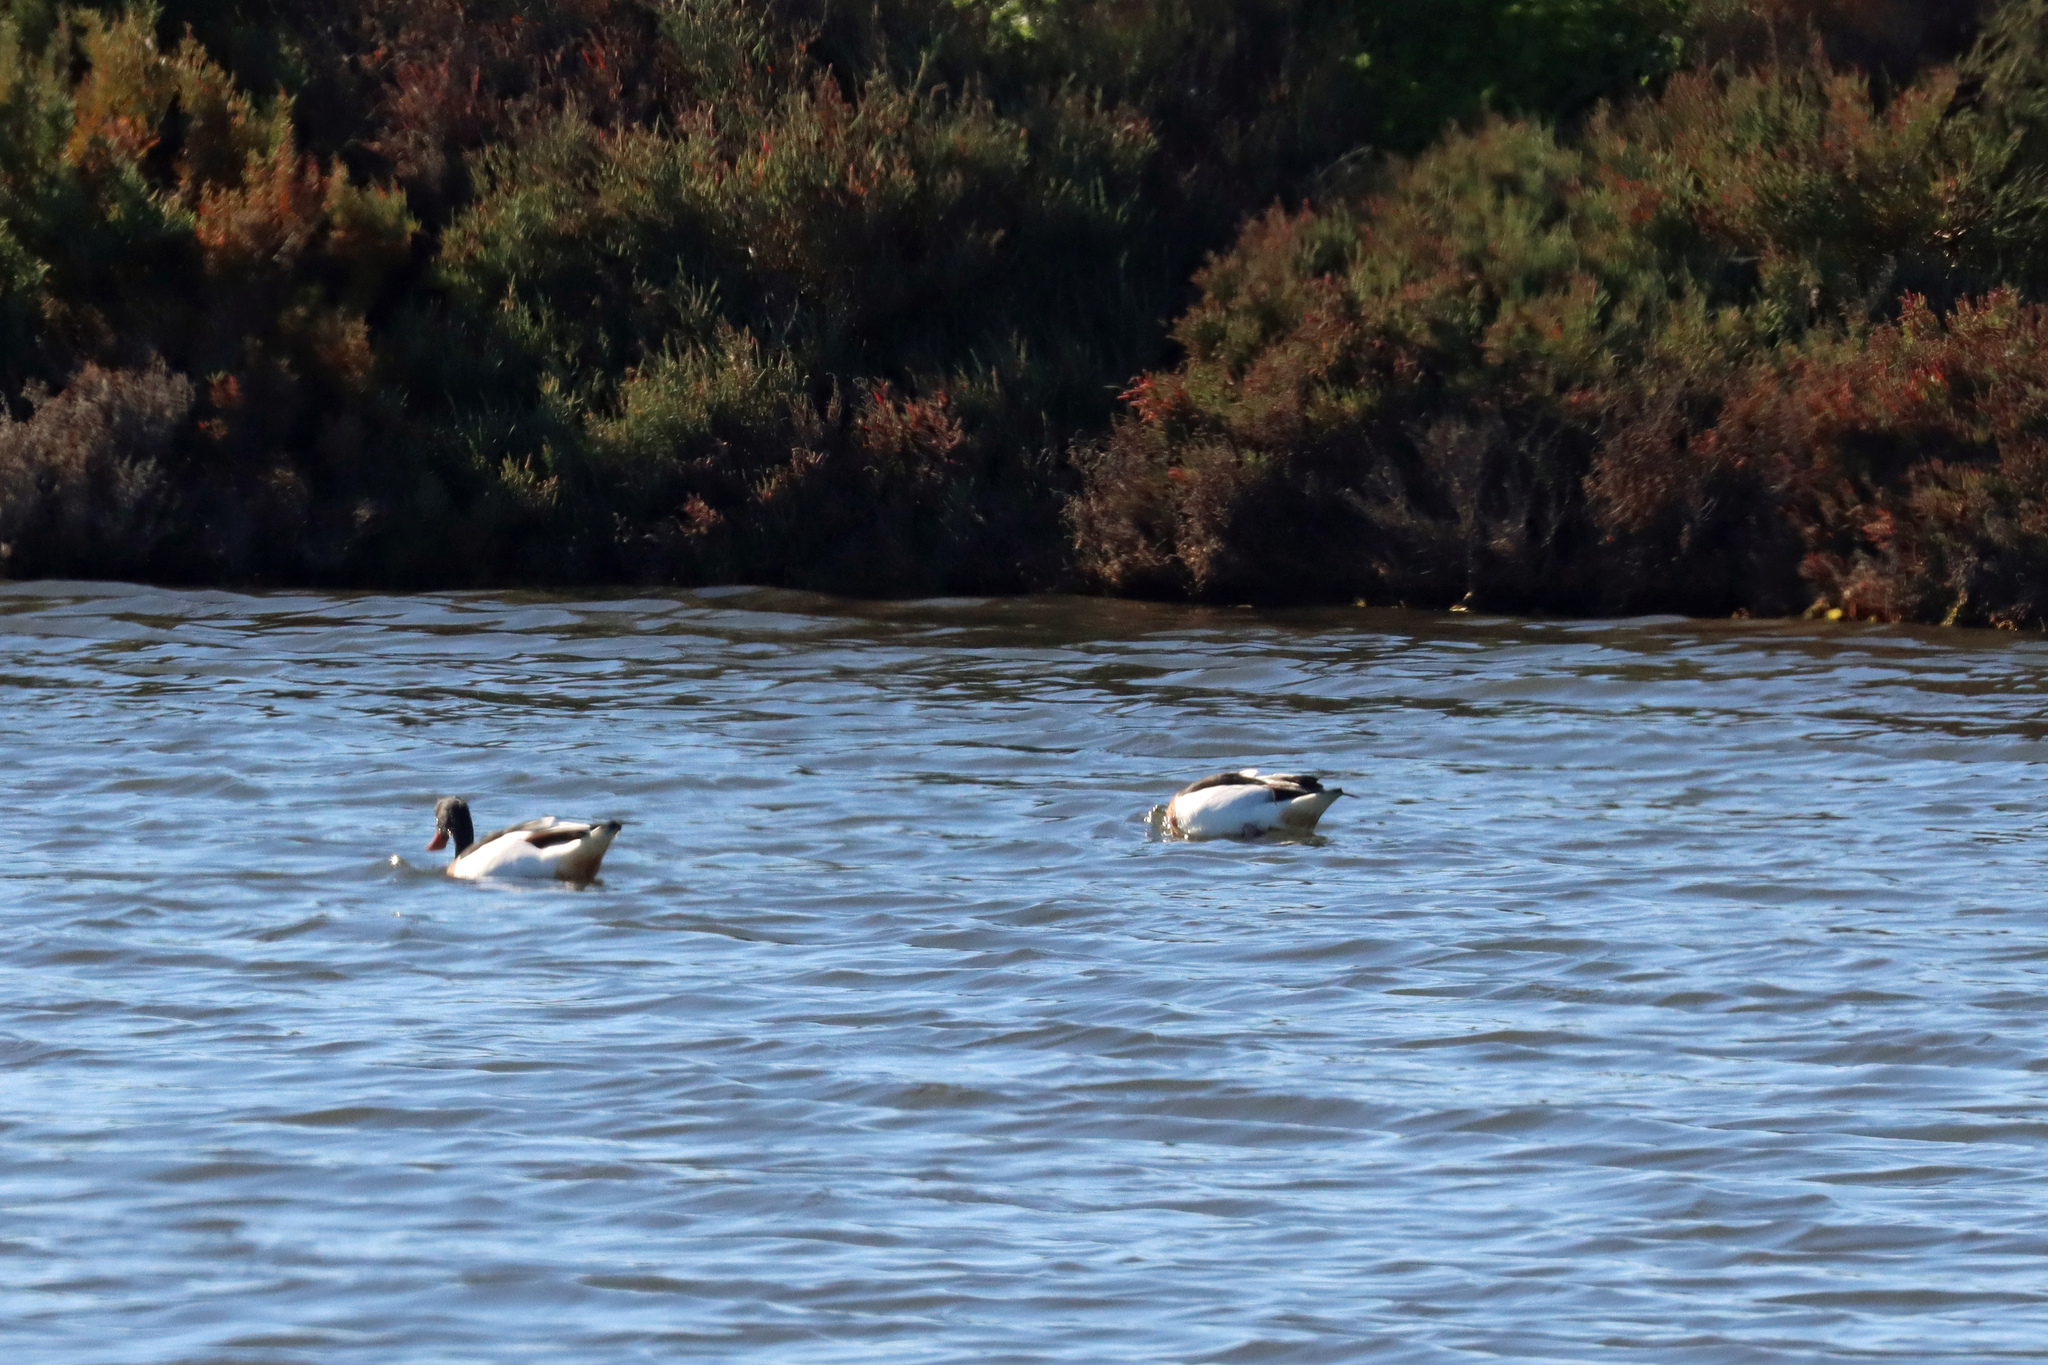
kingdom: Animalia
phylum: Chordata
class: Aves
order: Anseriformes
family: Anatidae
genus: Tadorna
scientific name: Tadorna tadorna
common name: Common shelduck
